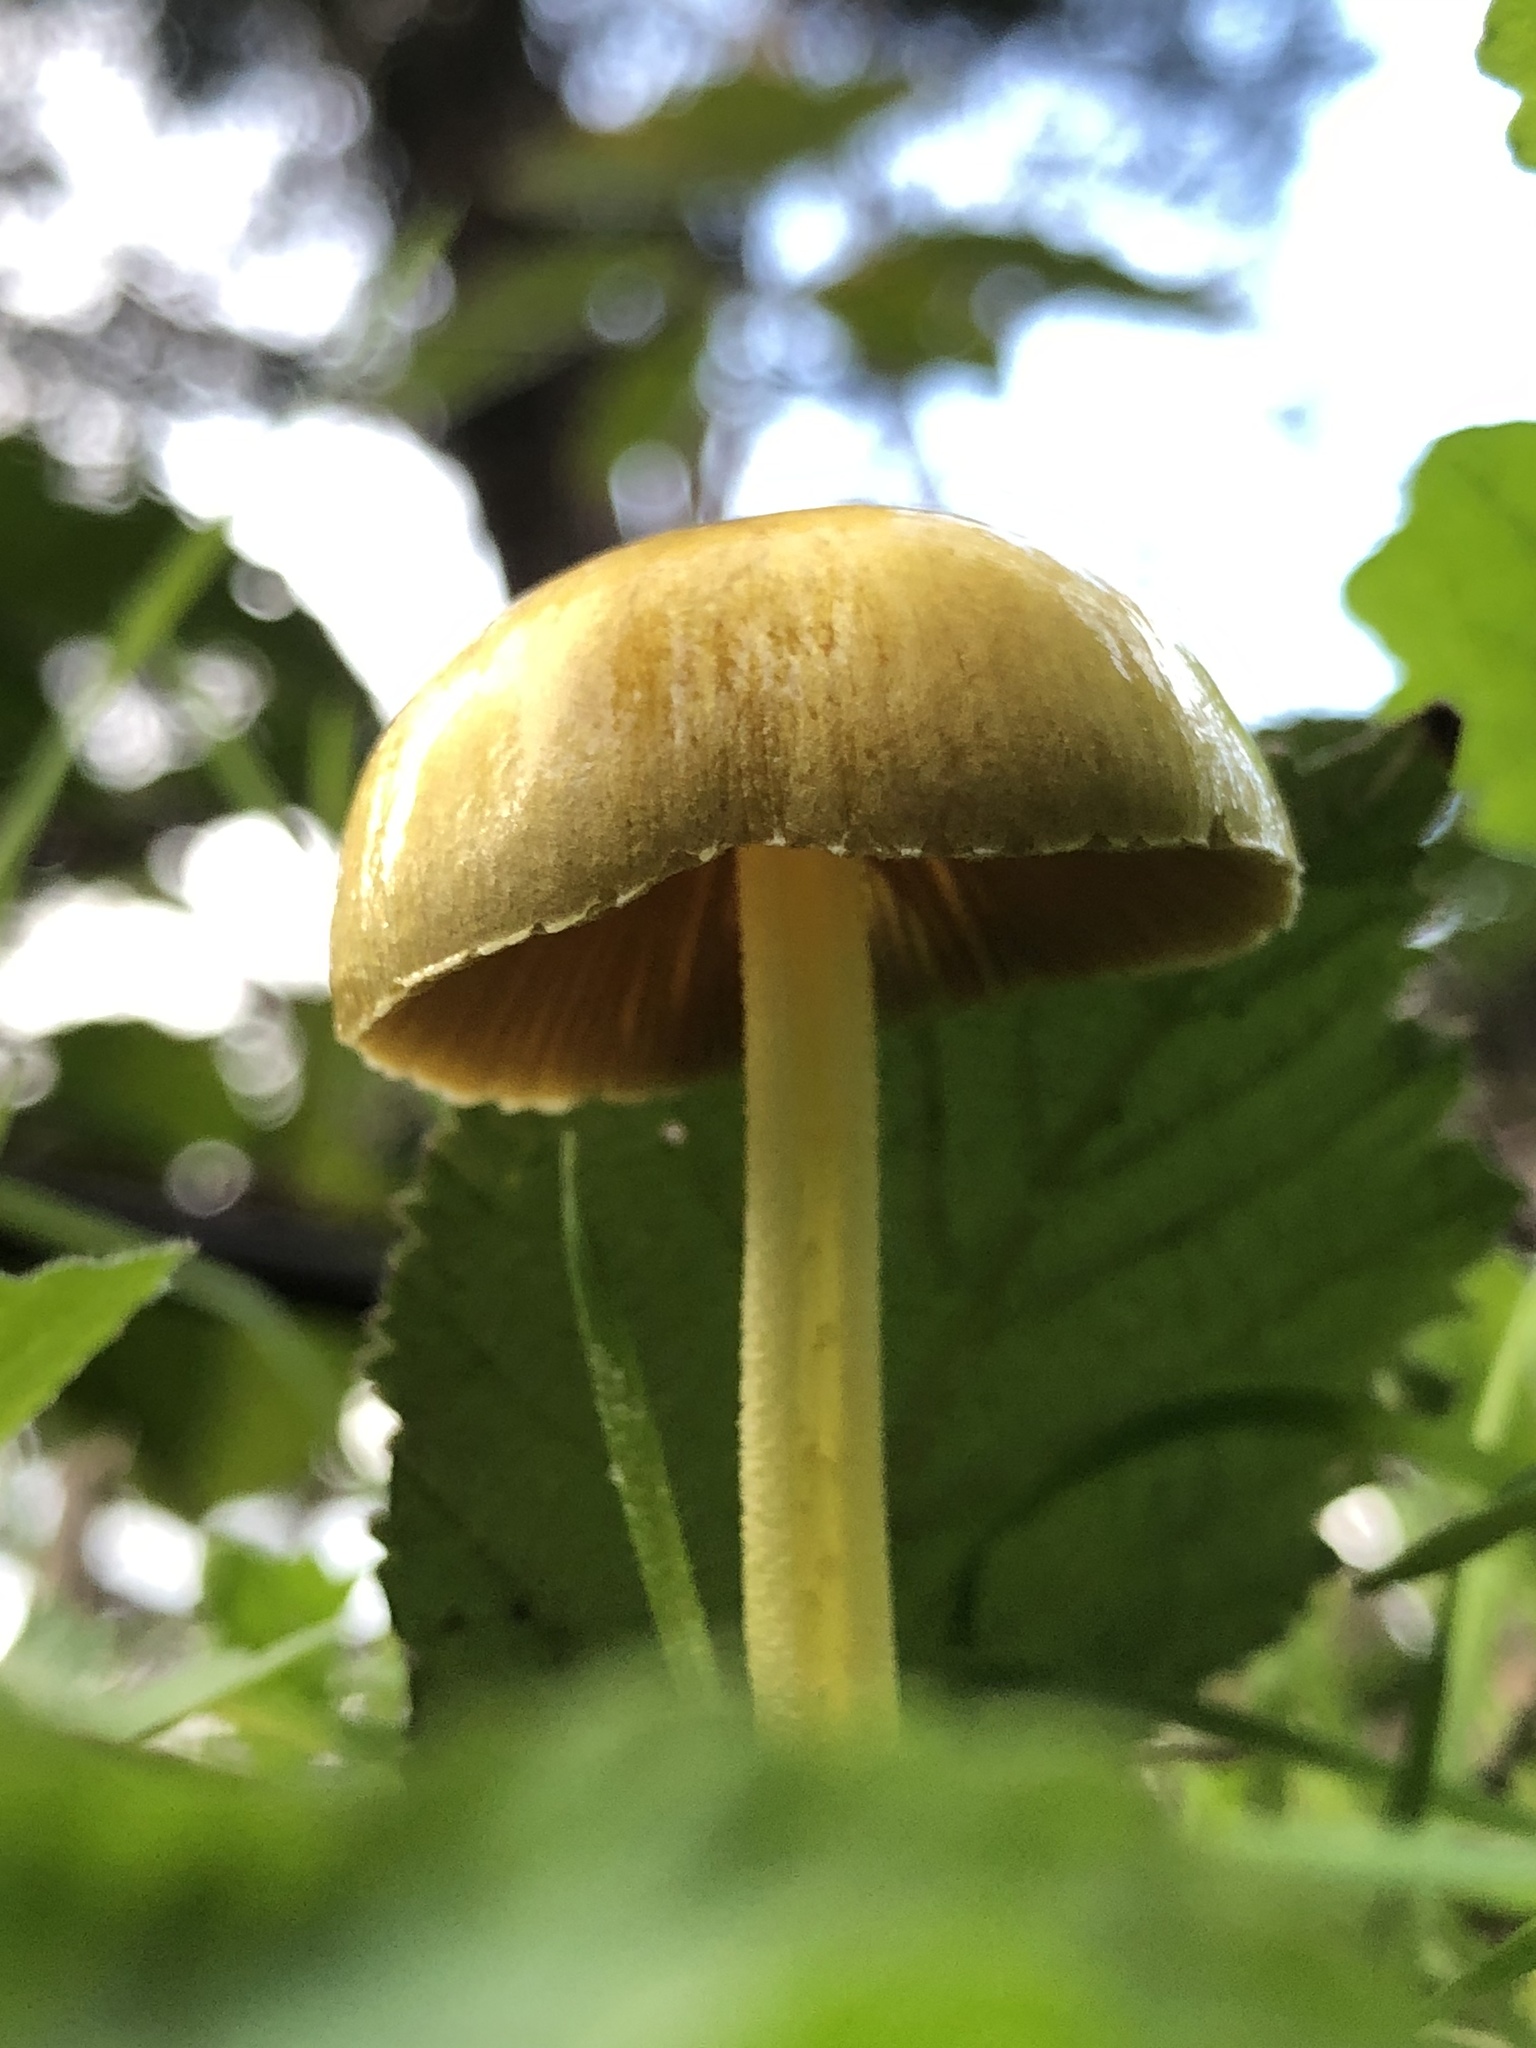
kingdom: Fungi
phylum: Basidiomycota
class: Agaricomycetes
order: Agaricales
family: Bolbitiaceae
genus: Bolbitius
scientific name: Bolbitius titubans
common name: Yellow fieldcap
